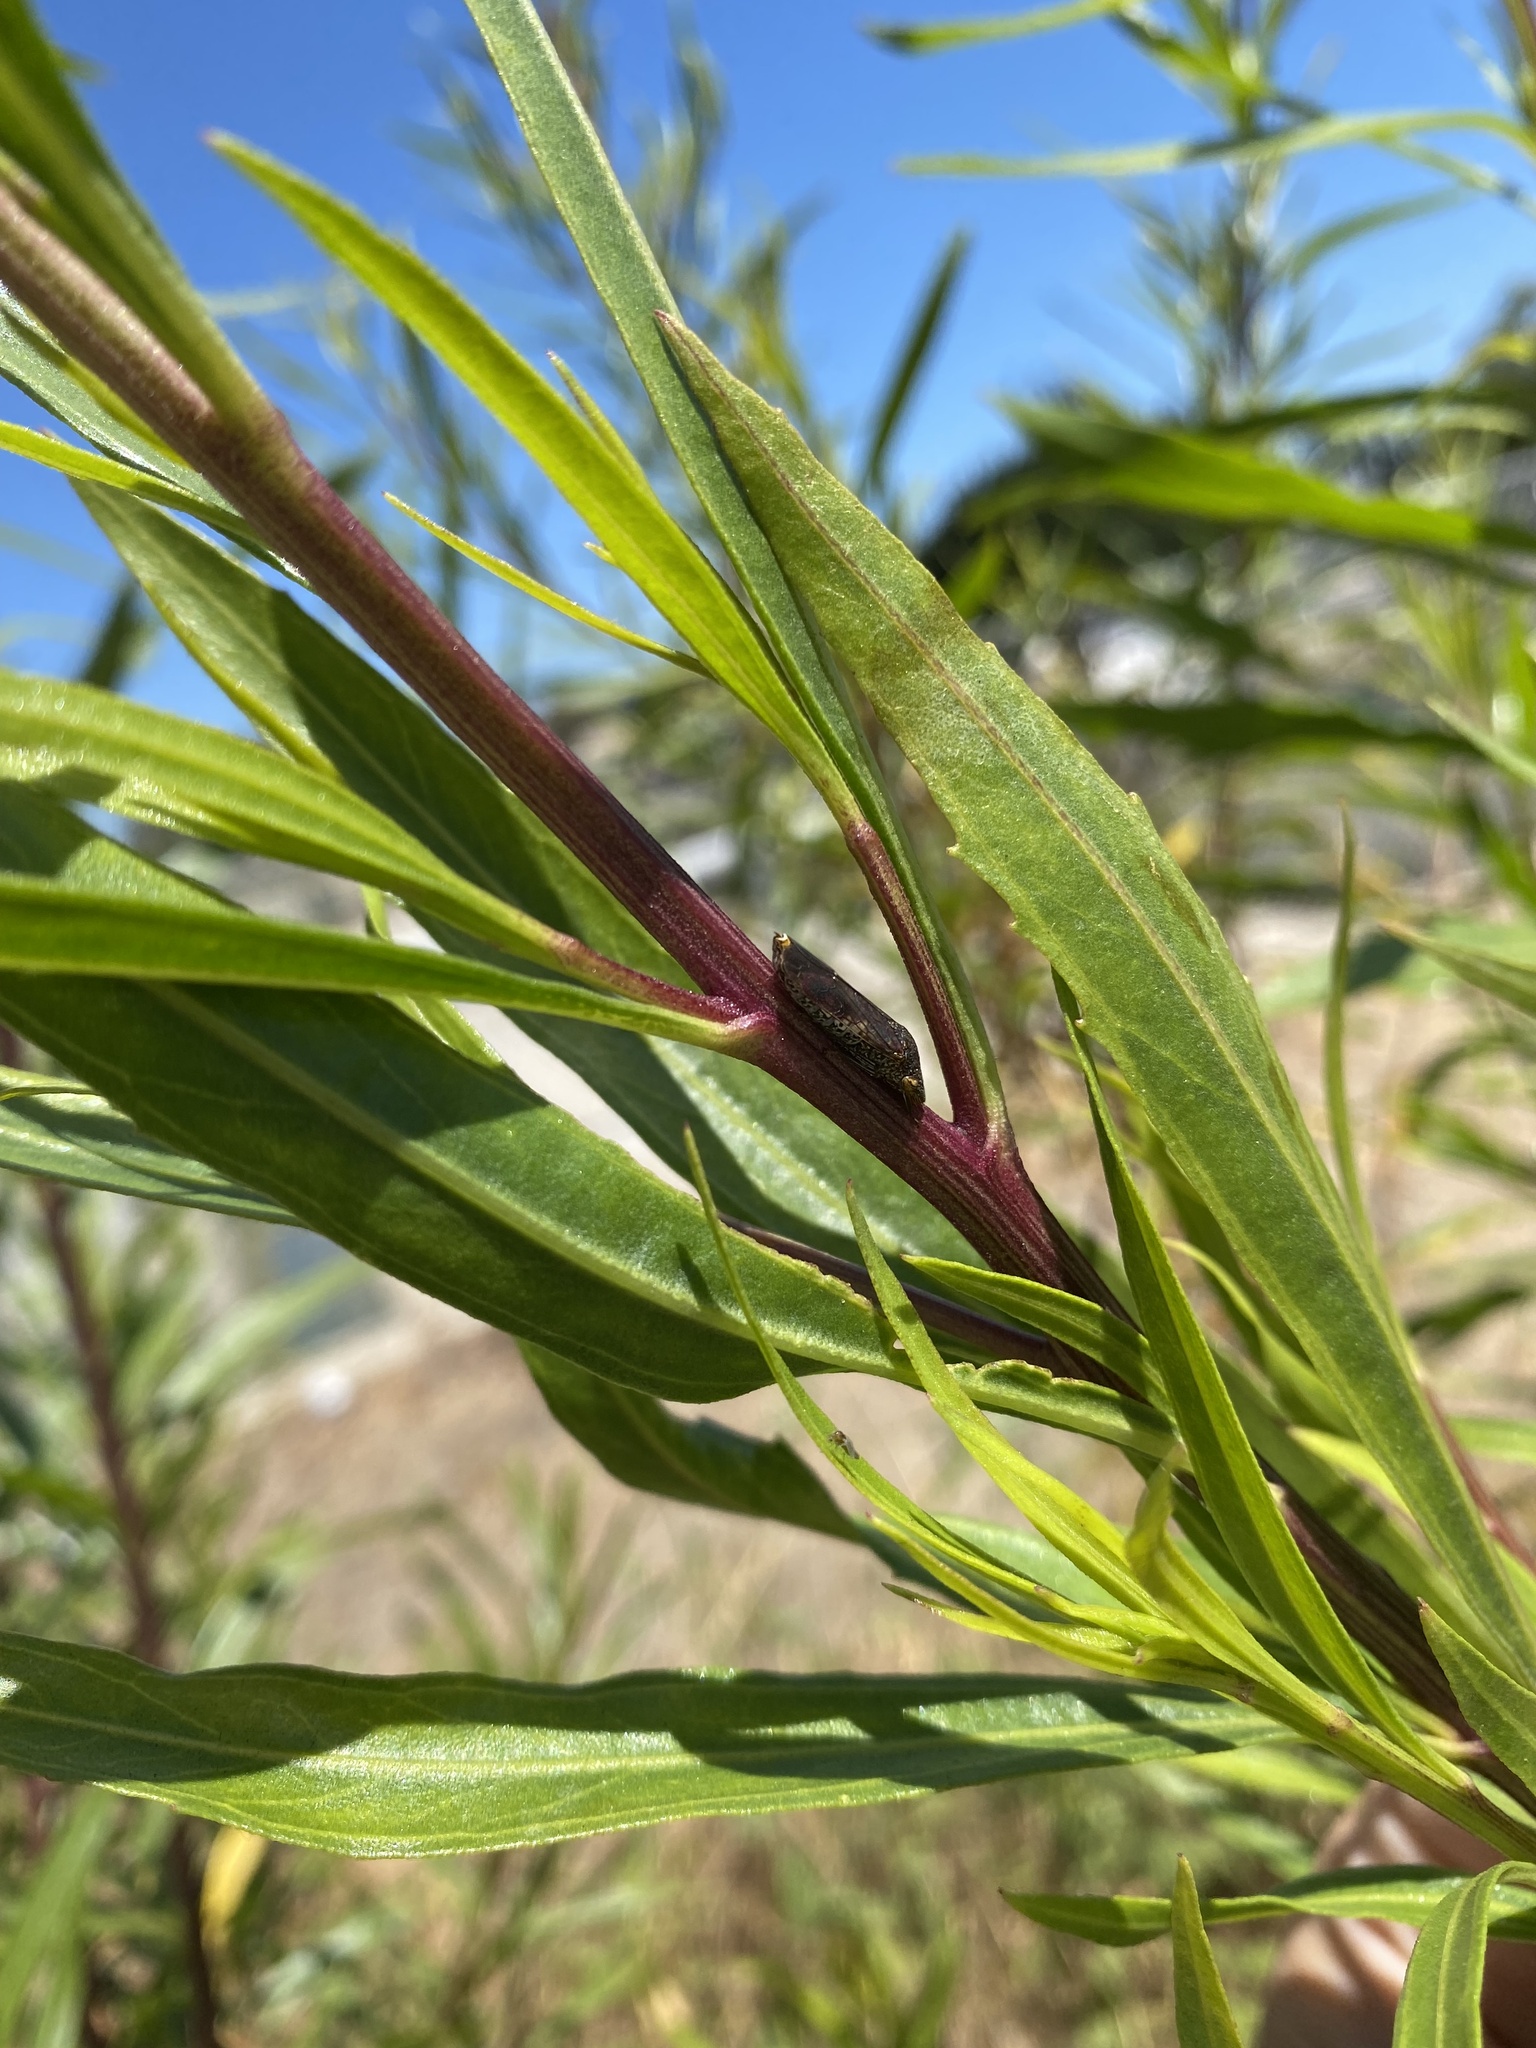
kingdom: Animalia
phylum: Arthropoda
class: Insecta
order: Hemiptera
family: Cicadellidae
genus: Homalodisca
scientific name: Homalodisca vitripennis
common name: Glassy-winged sharpshooter
